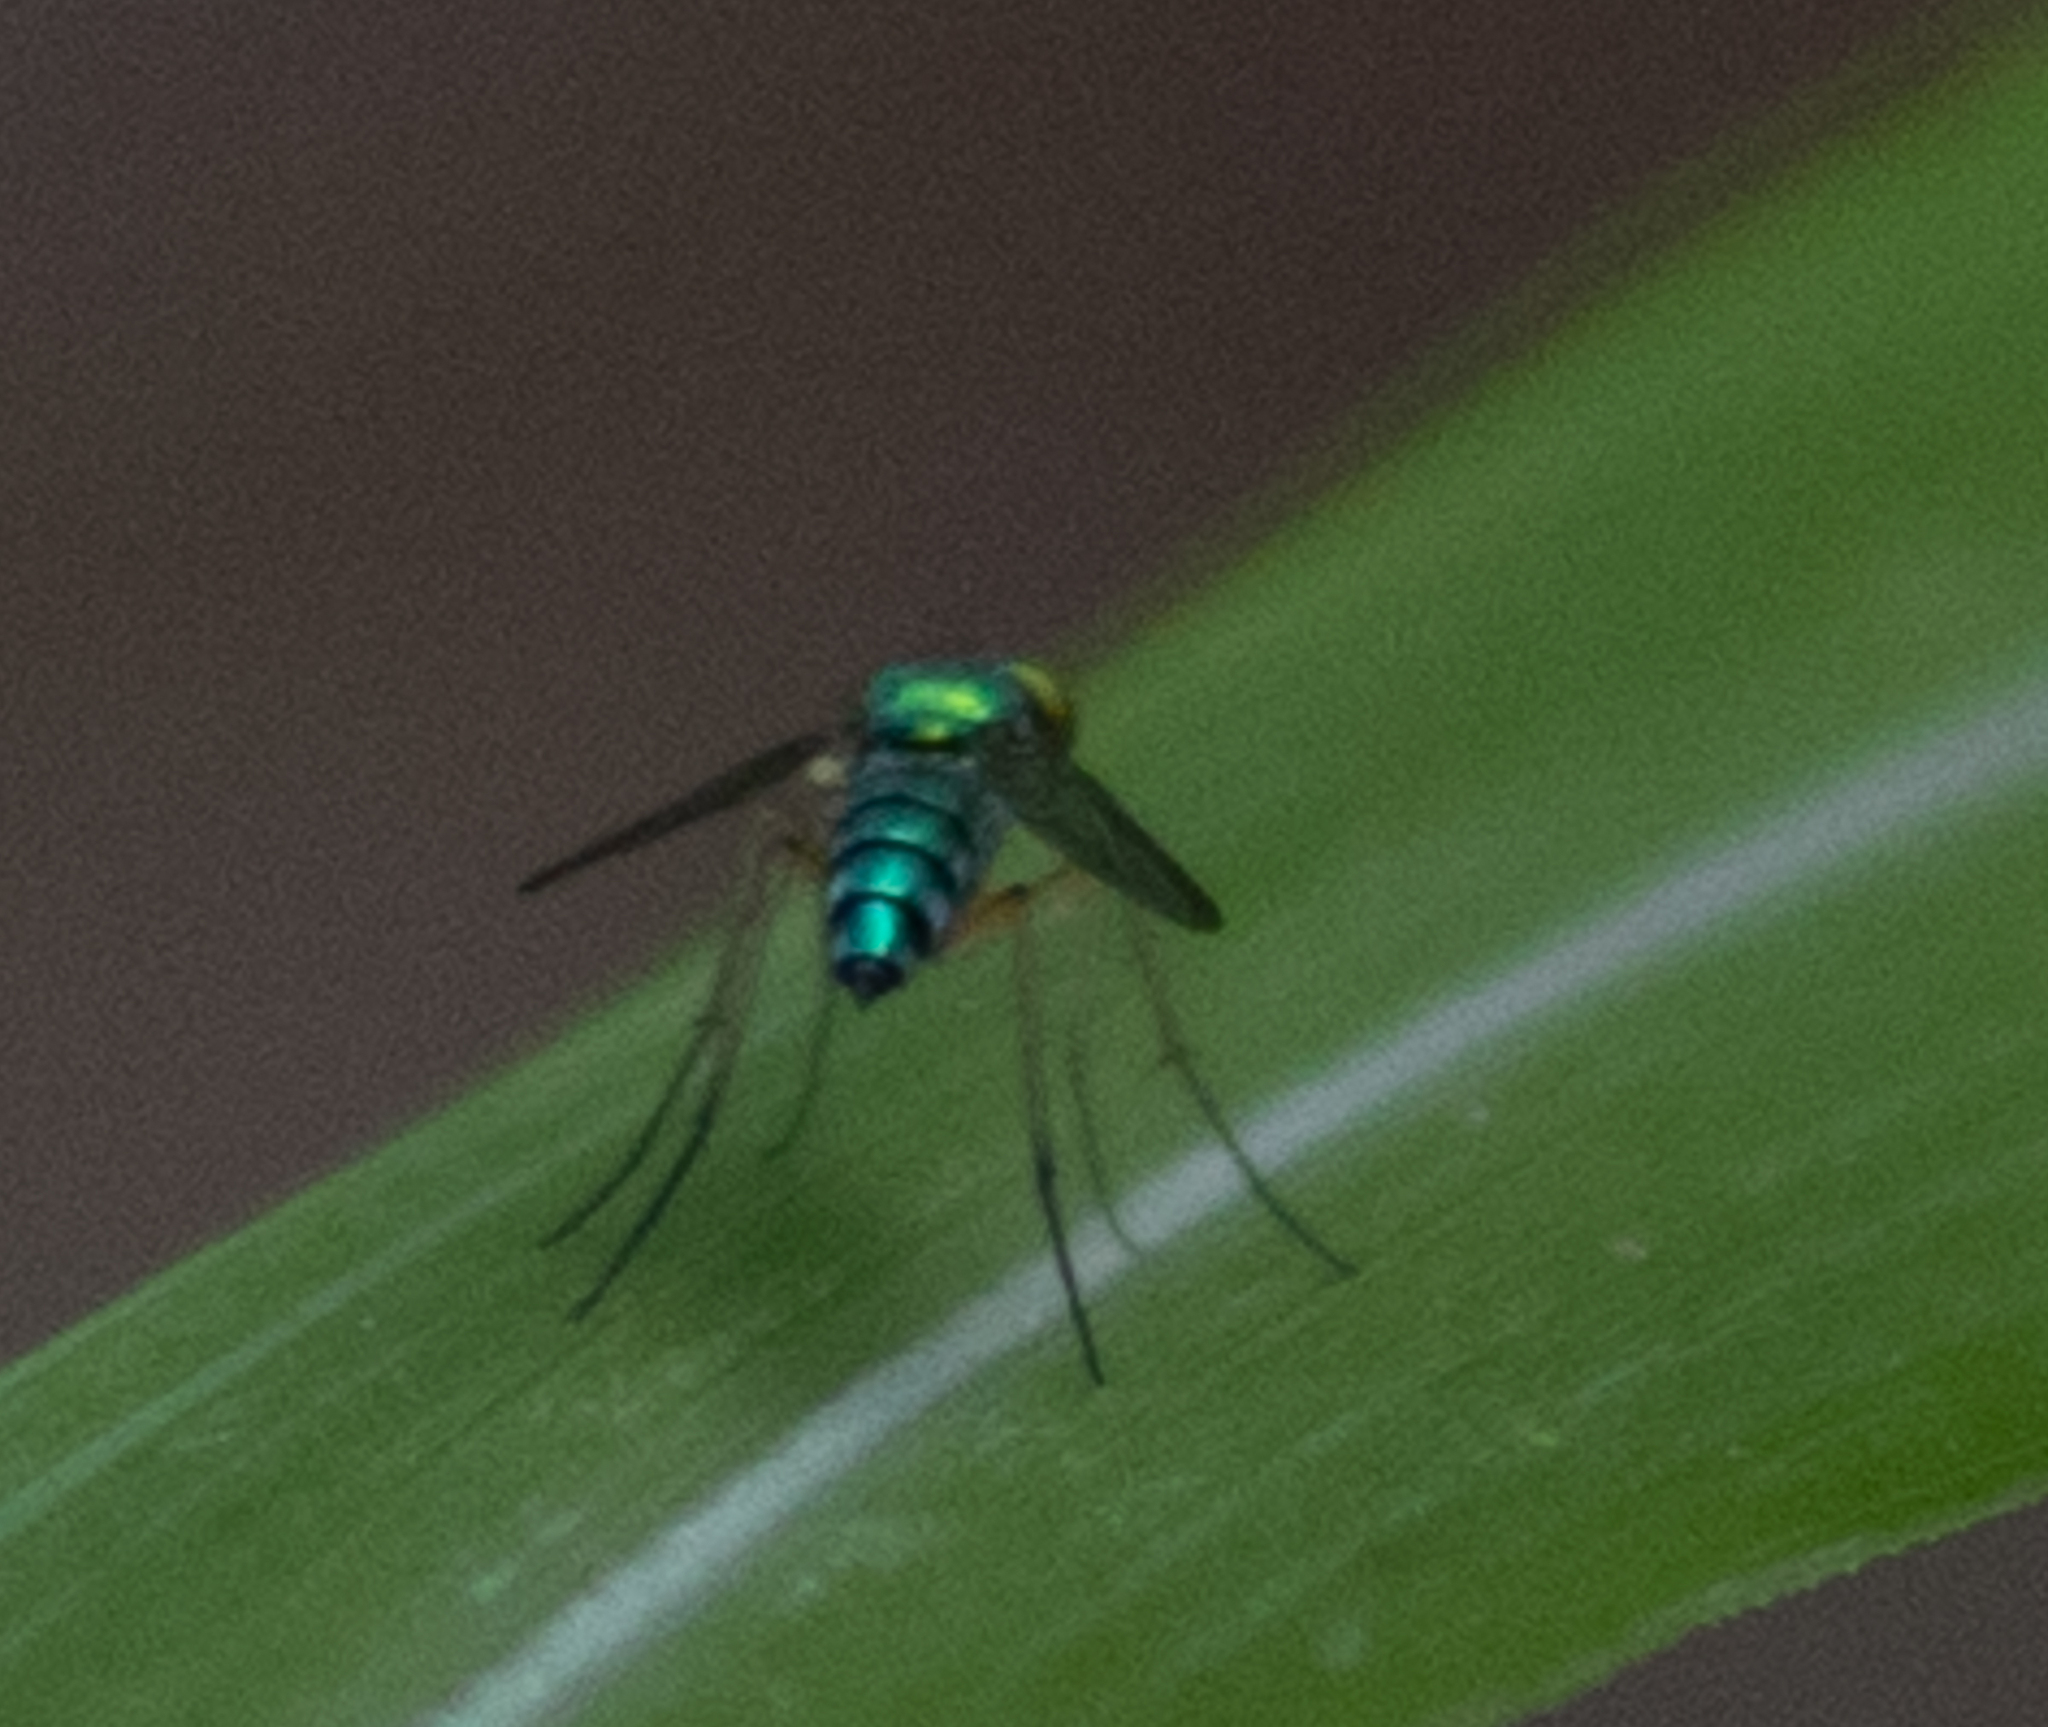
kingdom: Animalia
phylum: Arthropoda
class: Insecta
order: Diptera
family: Dolichopodidae
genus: Condylostylus
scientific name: Condylostylus
